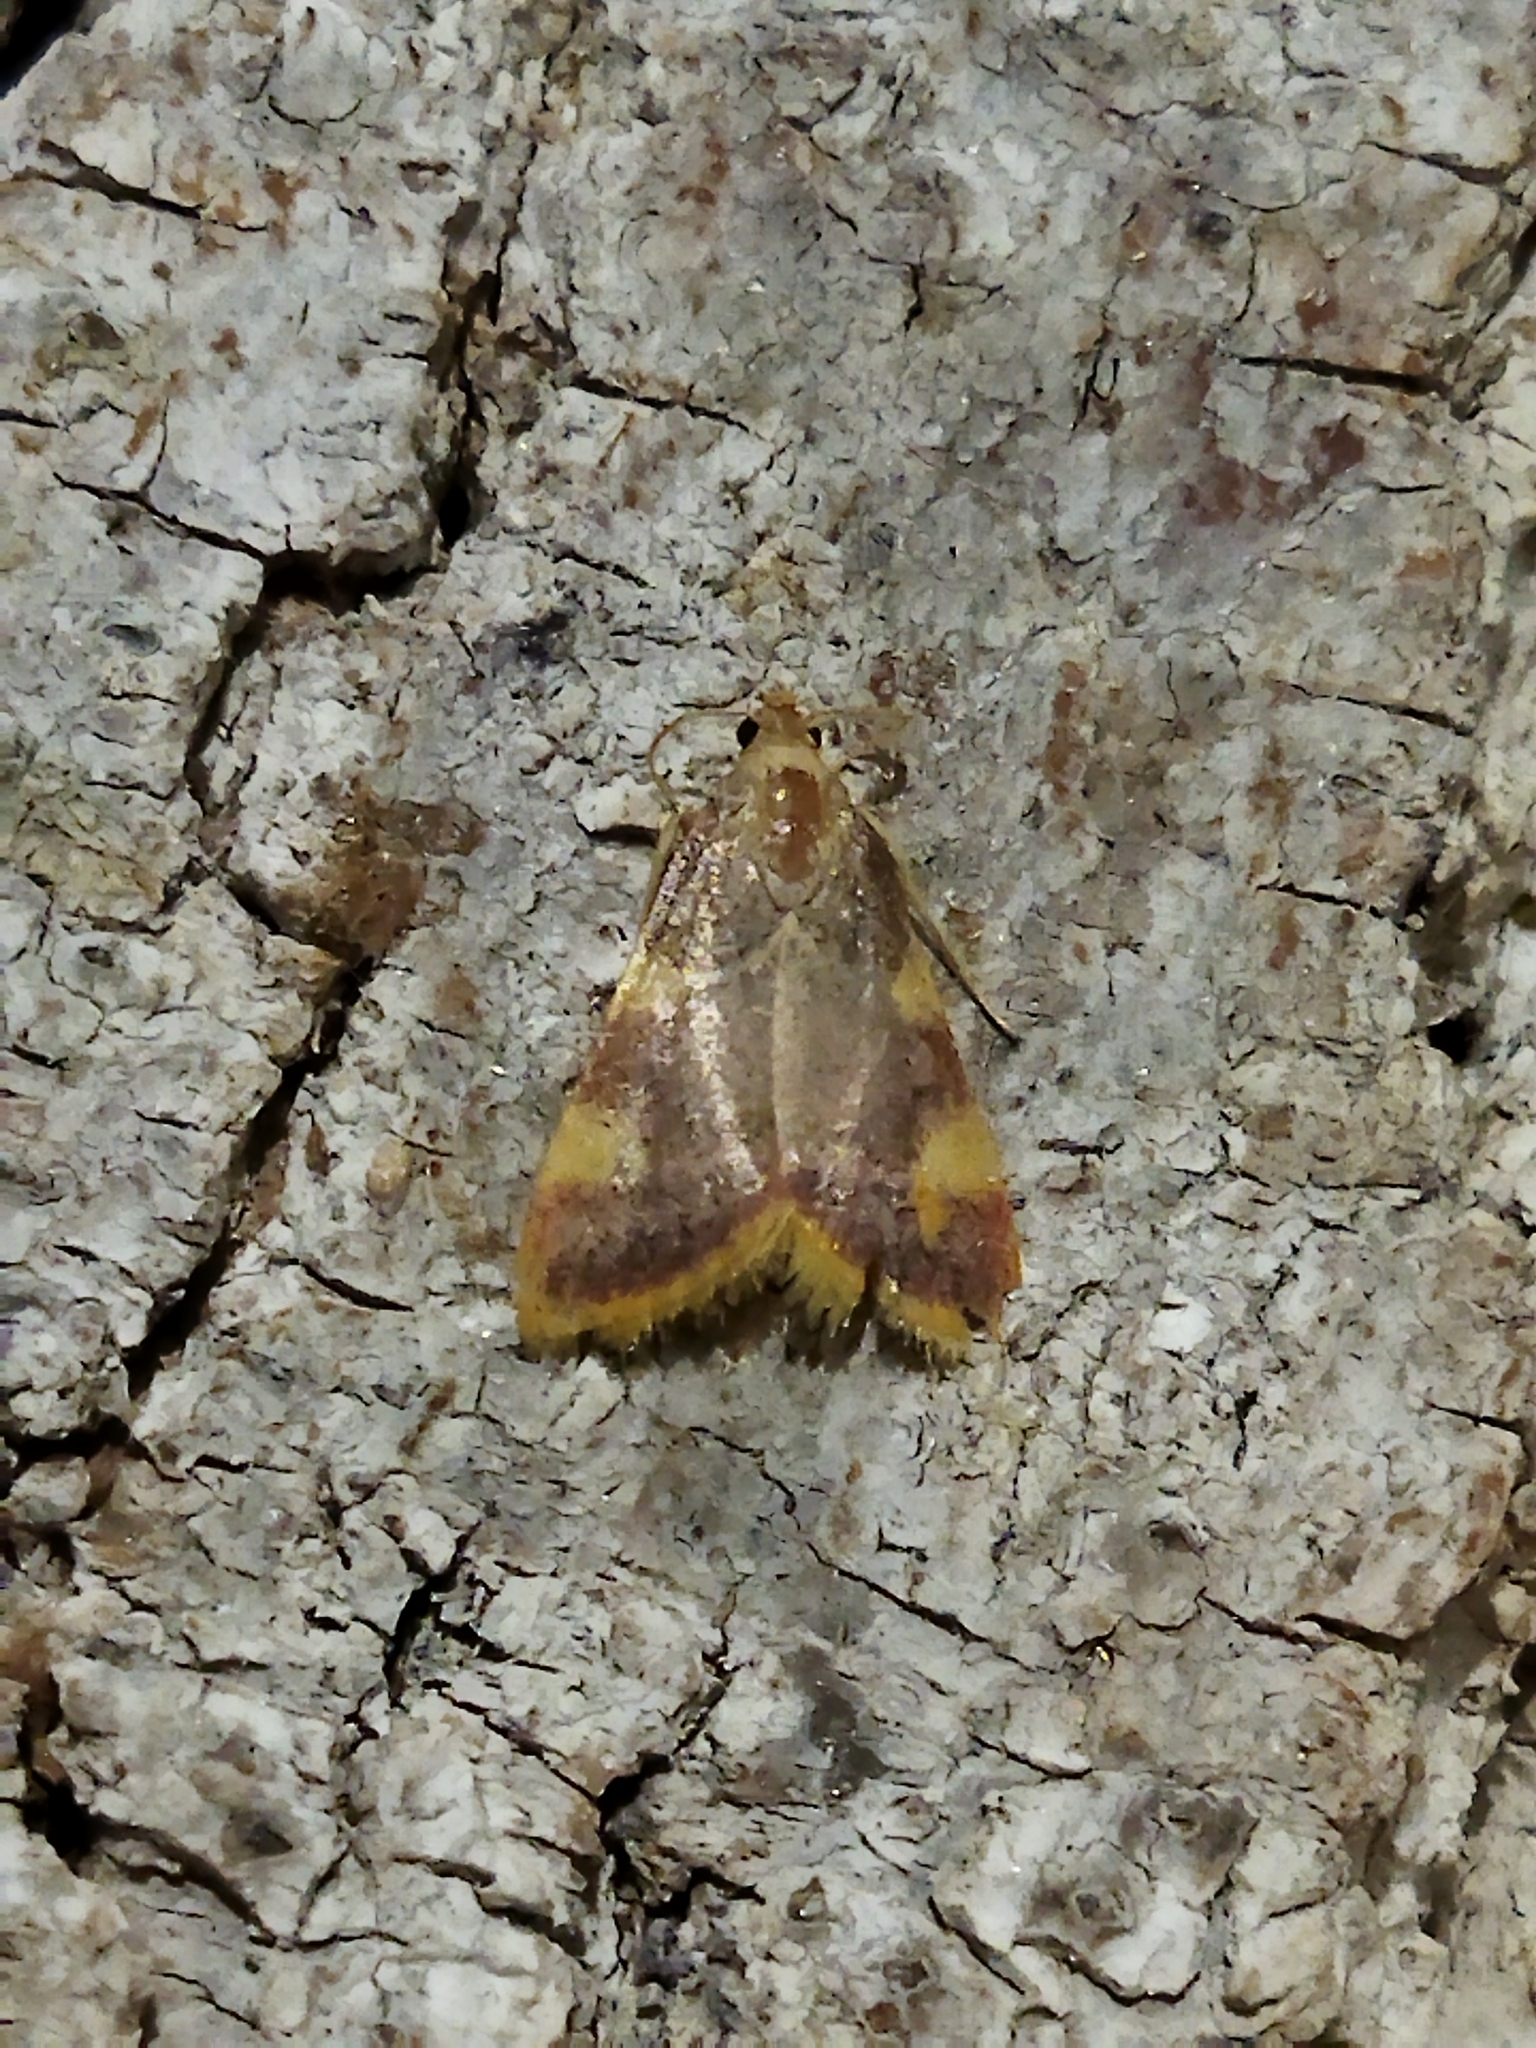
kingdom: Animalia
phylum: Arthropoda
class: Insecta
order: Lepidoptera
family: Pyralidae
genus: Hypsopygia
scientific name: Hypsopygia costalis
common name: Gold triangle
